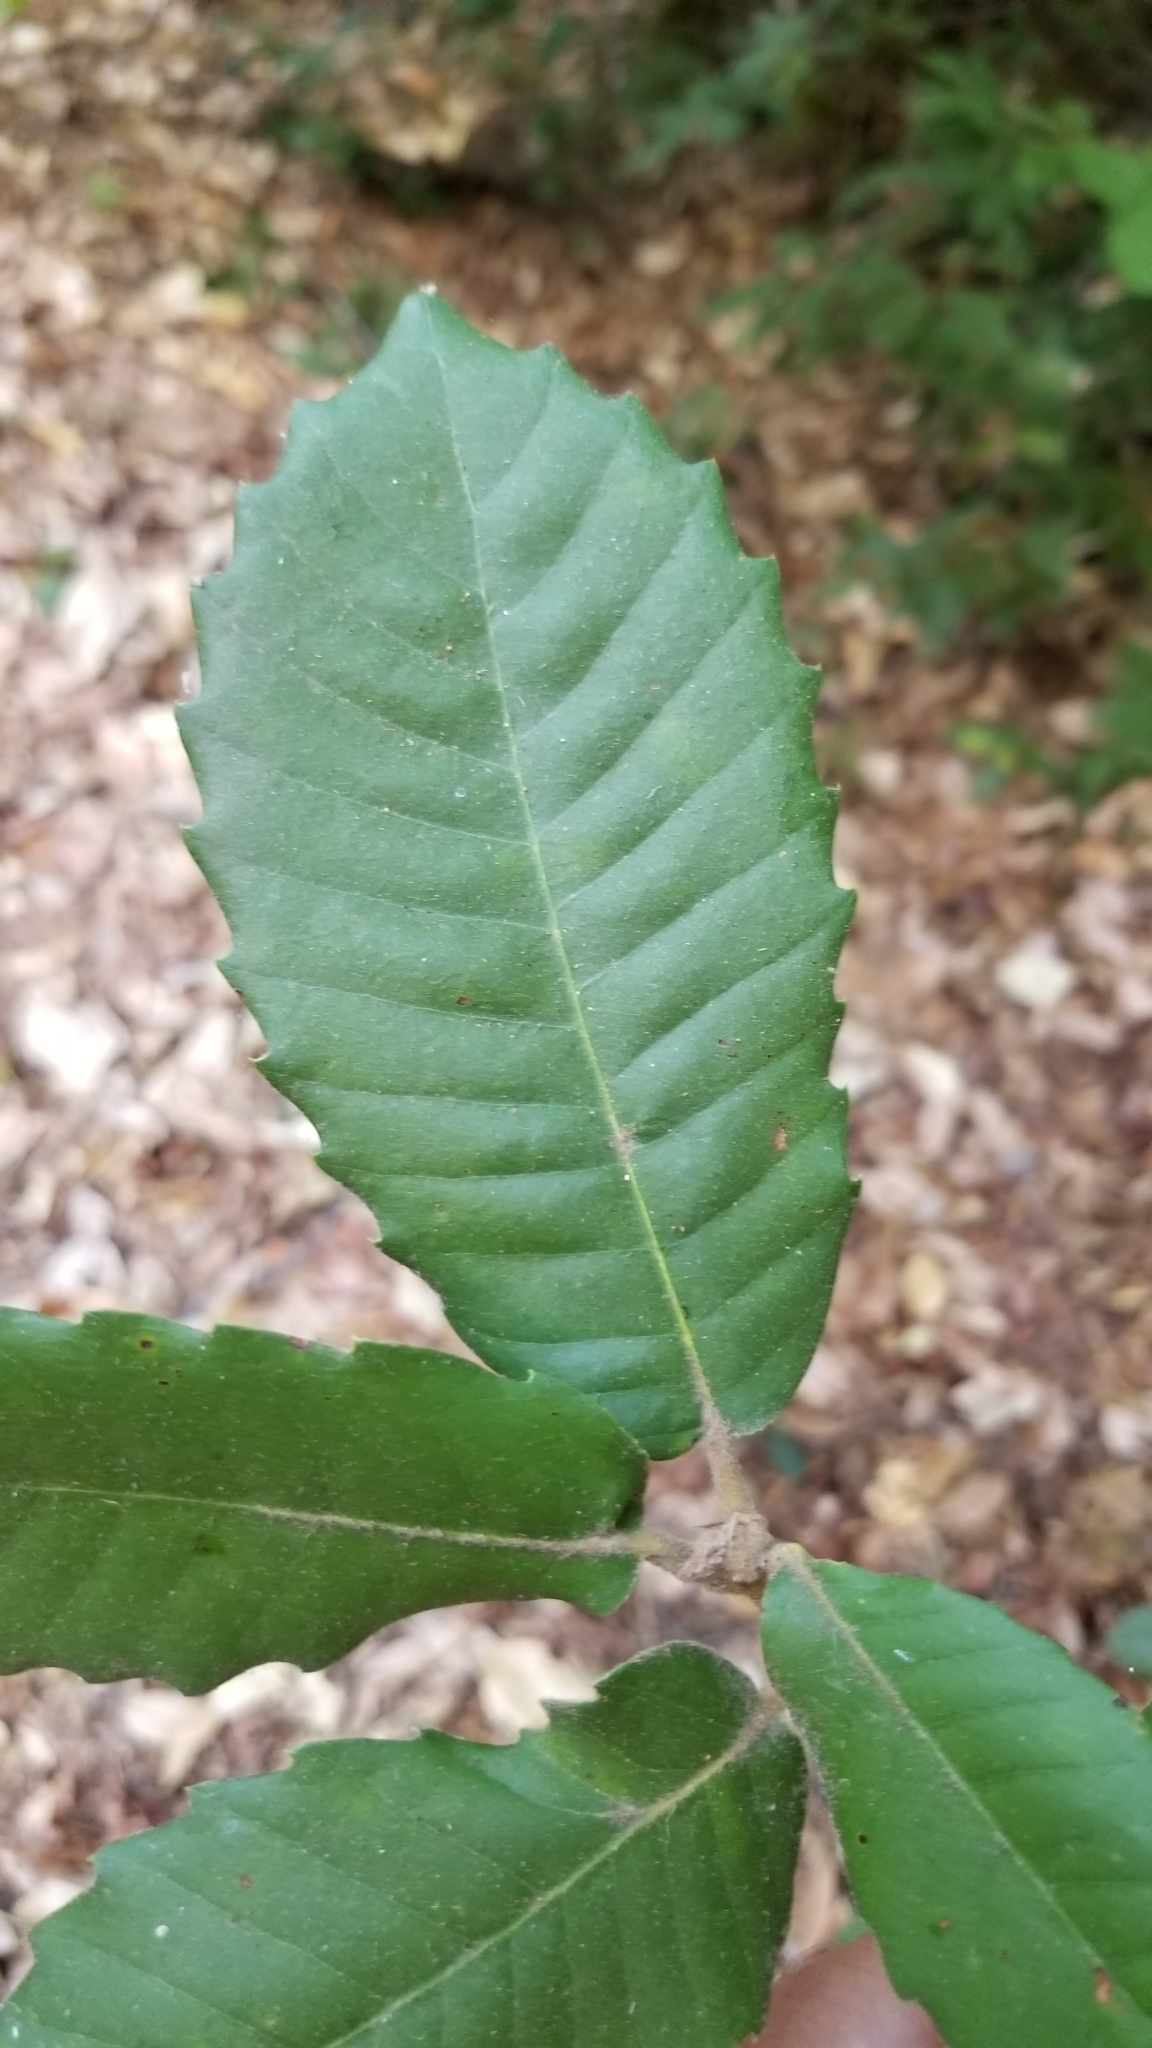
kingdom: Plantae
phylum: Tracheophyta
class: Magnoliopsida
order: Fagales
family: Fagaceae
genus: Notholithocarpus
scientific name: Notholithocarpus densiflorus
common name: Tan bark oak
